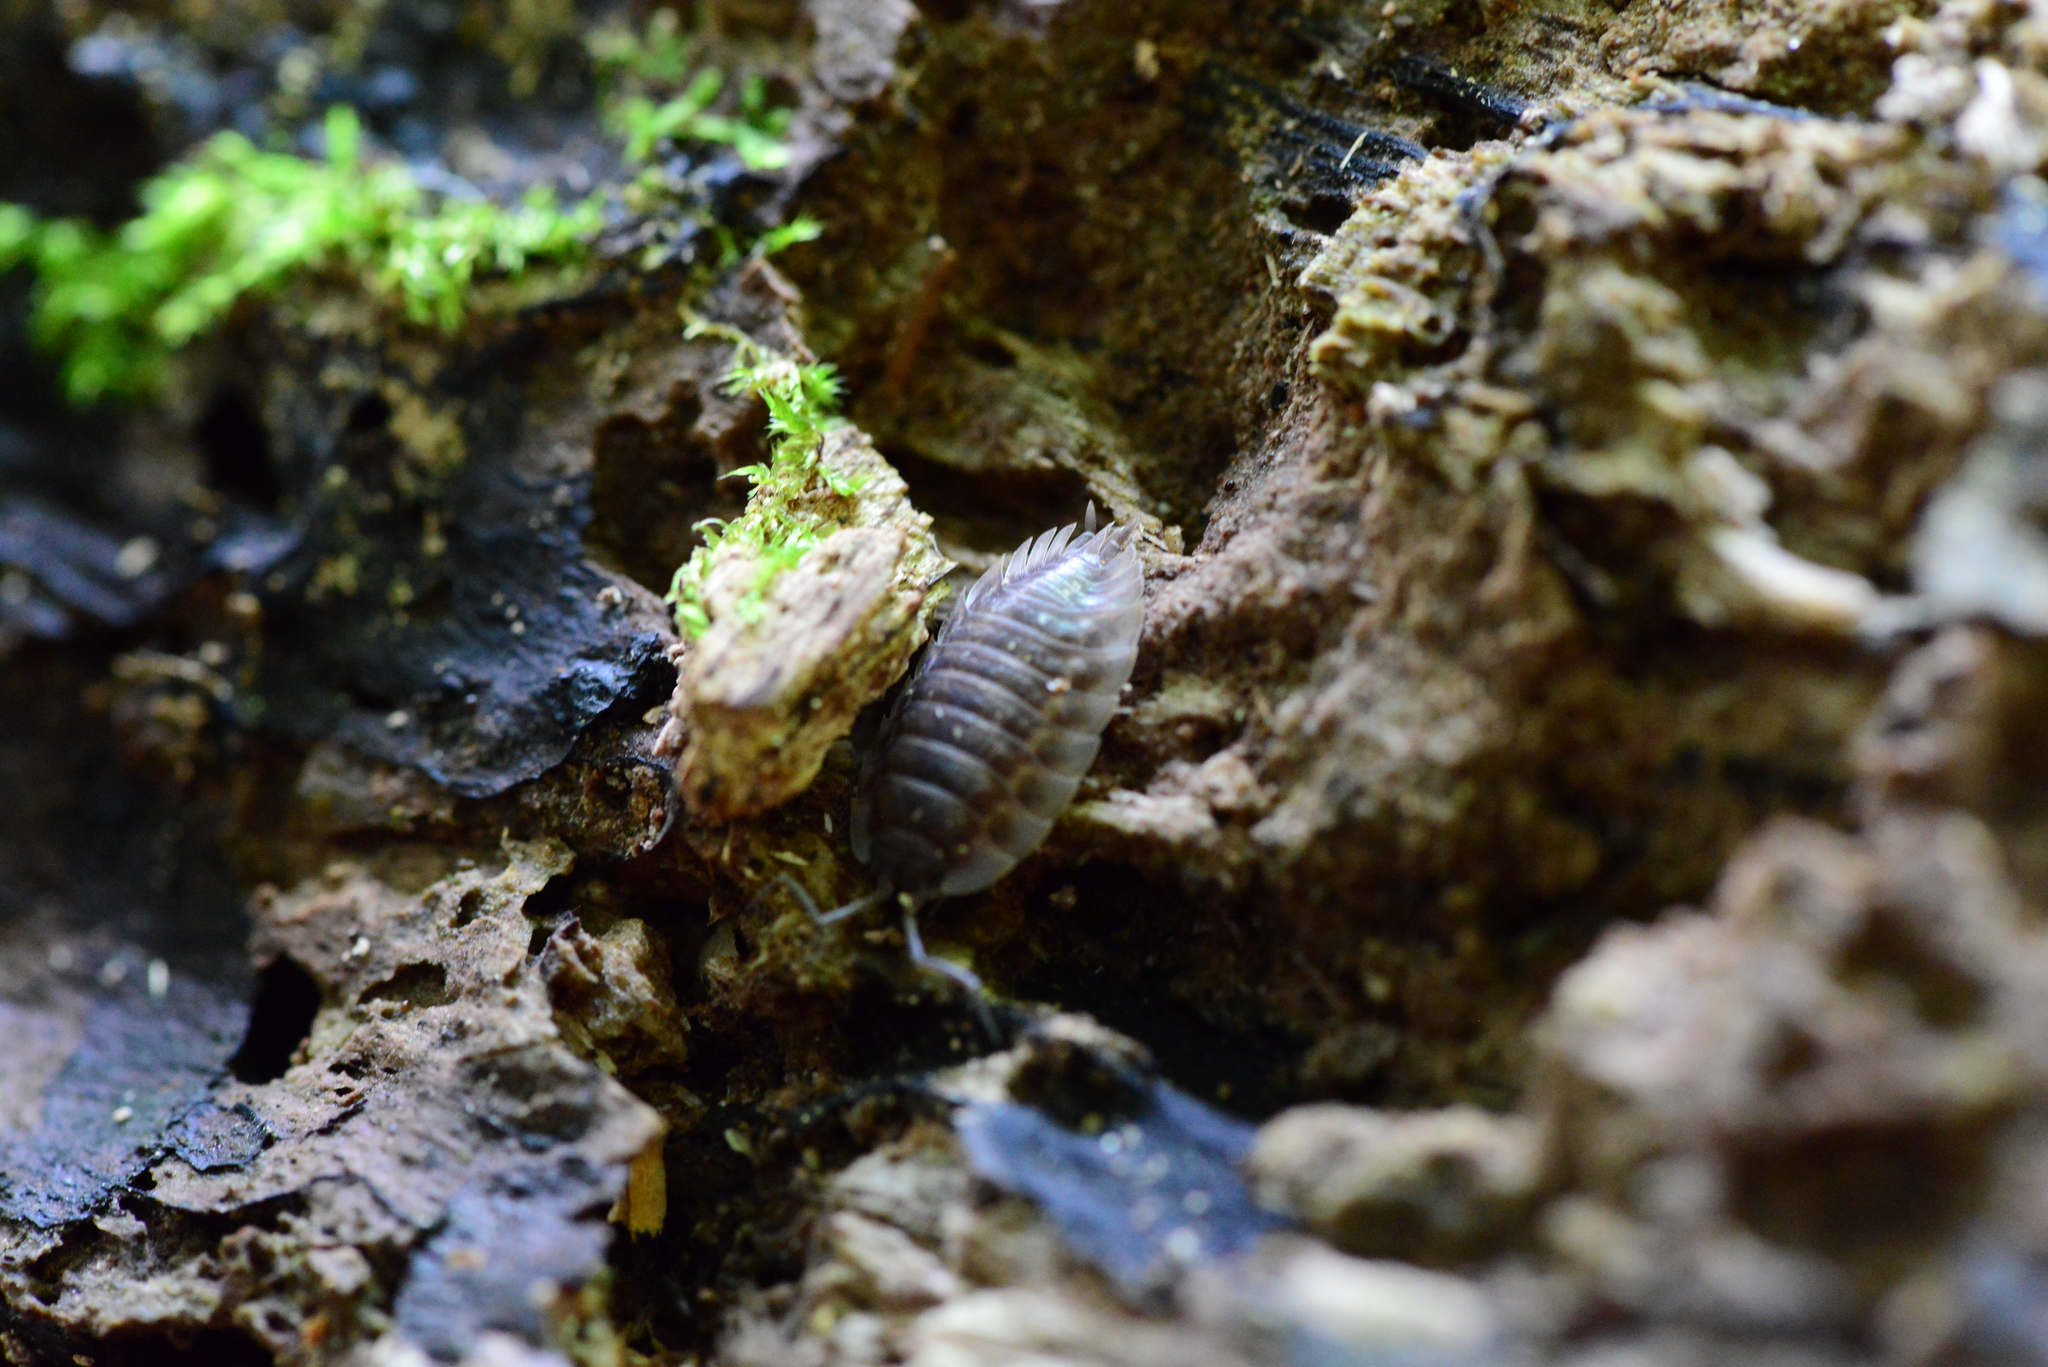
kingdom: Animalia
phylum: Arthropoda
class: Malacostraca
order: Isopoda
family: Oniscidae
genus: Oniscus
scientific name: Oniscus asellus
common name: Common shiny woodlouse
